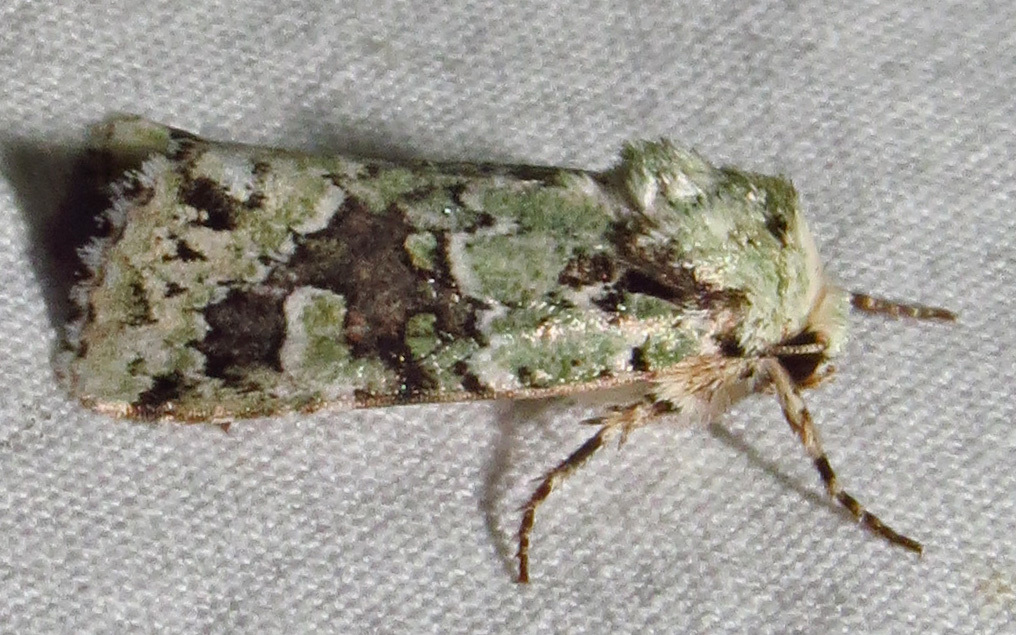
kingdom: Animalia
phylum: Arthropoda
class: Insecta
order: Lepidoptera
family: Noctuidae
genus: Lacinipolia
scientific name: Lacinipolia laudabilis
